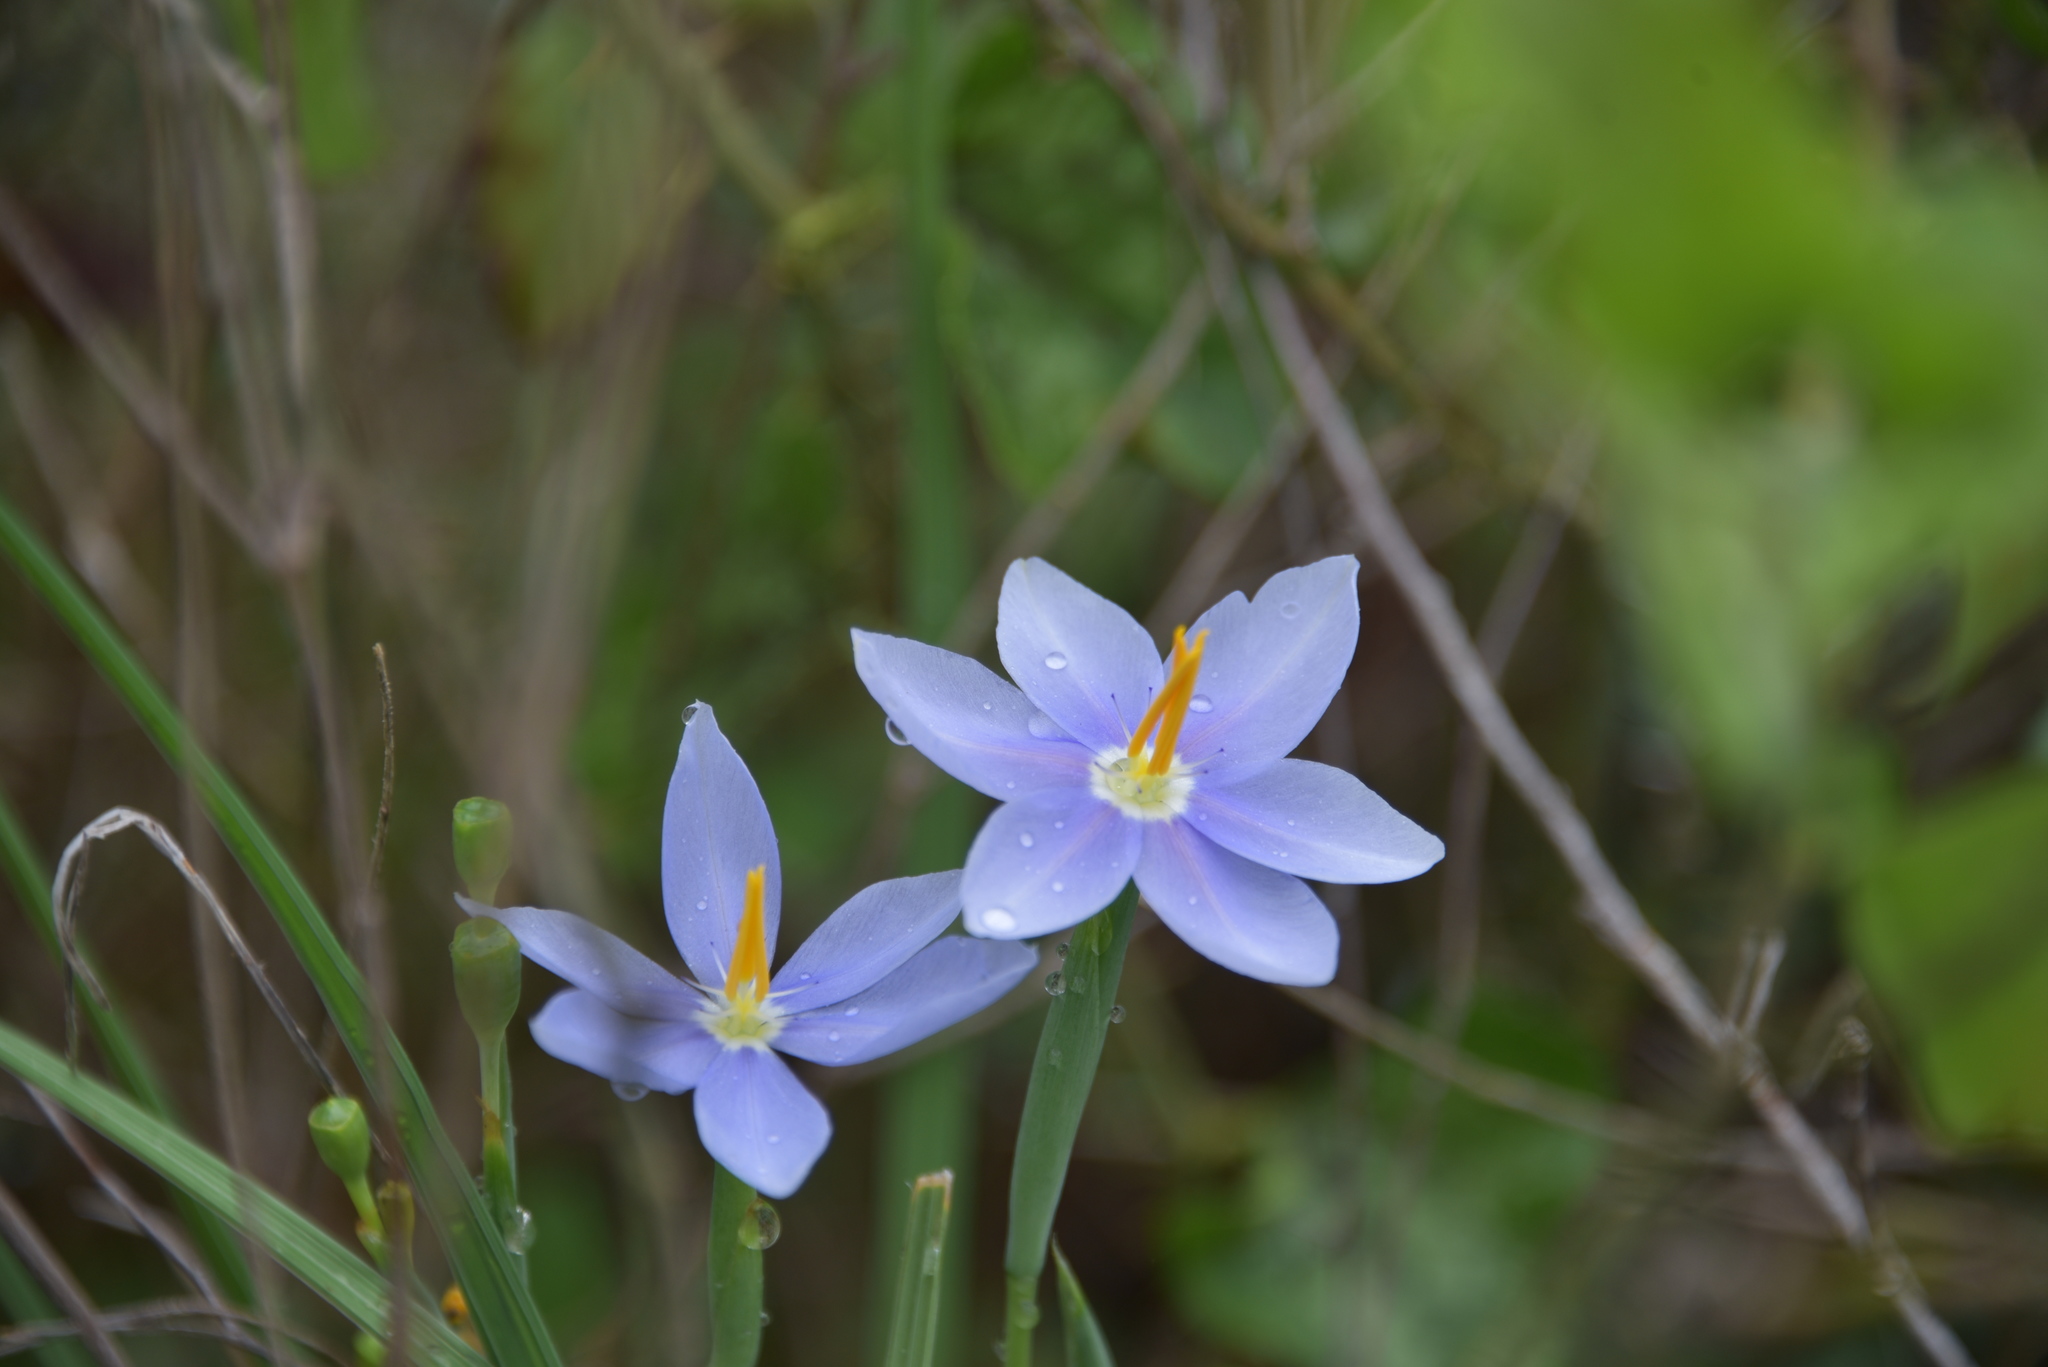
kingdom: Plantae
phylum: Tracheophyta
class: Liliopsida
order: Asparagales
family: Iridaceae
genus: Nemastylis
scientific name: Nemastylis geminiflora
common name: Prairie celestial
